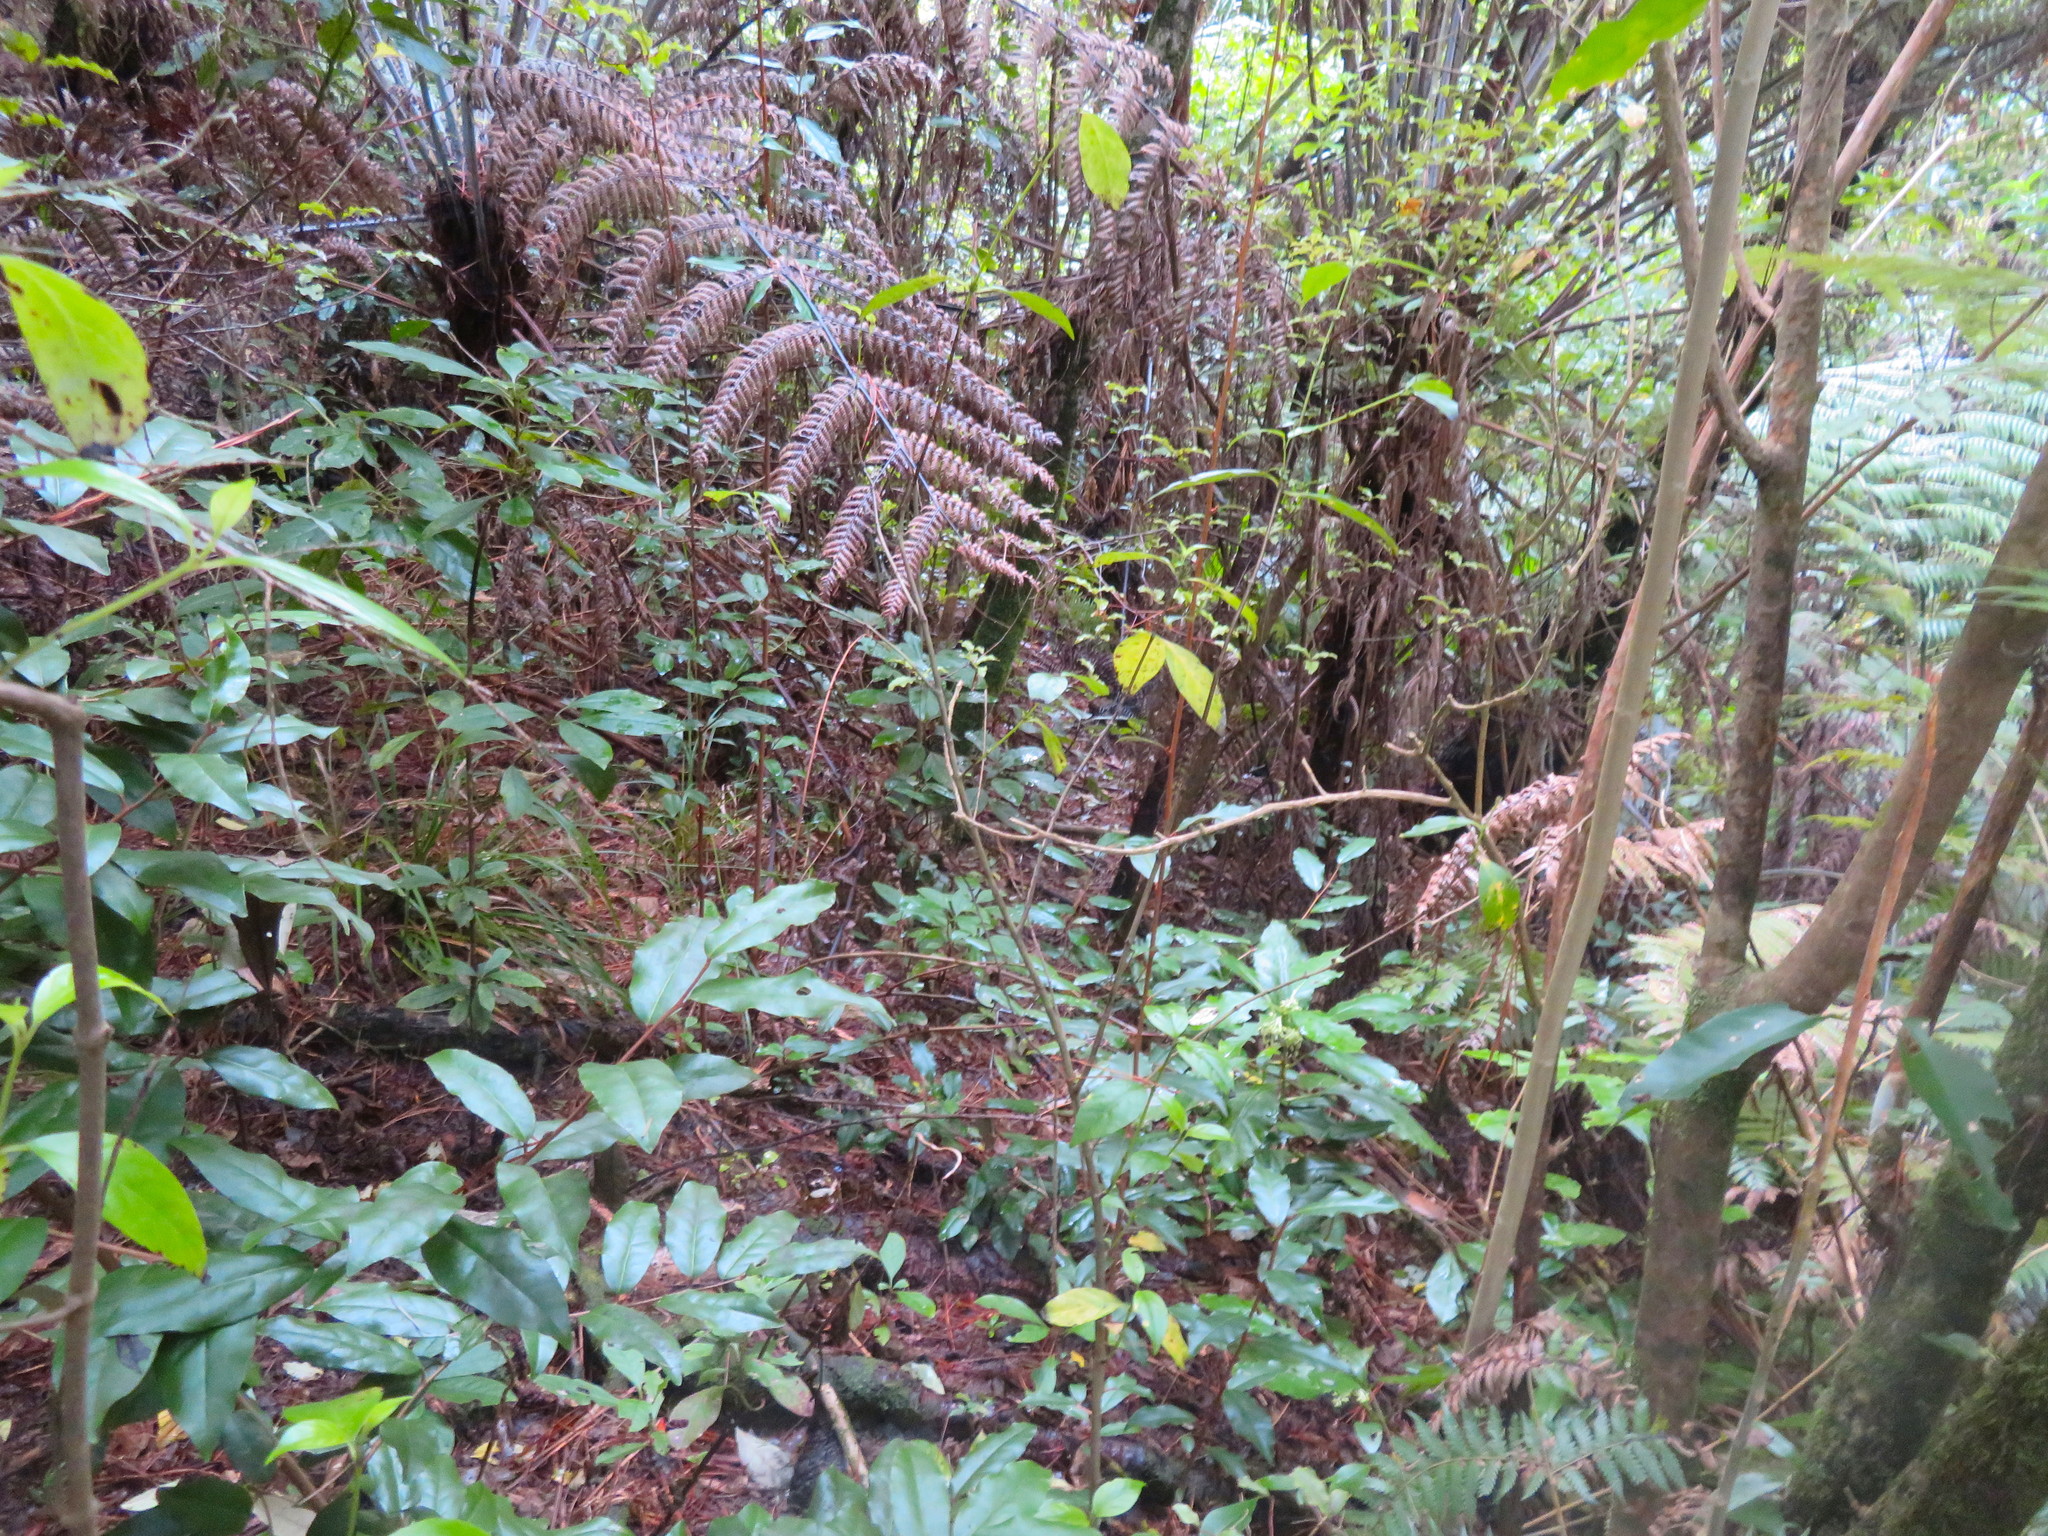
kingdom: Plantae
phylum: Tracheophyta
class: Magnoliopsida
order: Rosales
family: Elaeagnaceae
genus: Elaeagnus
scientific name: Elaeagnus reflexa
